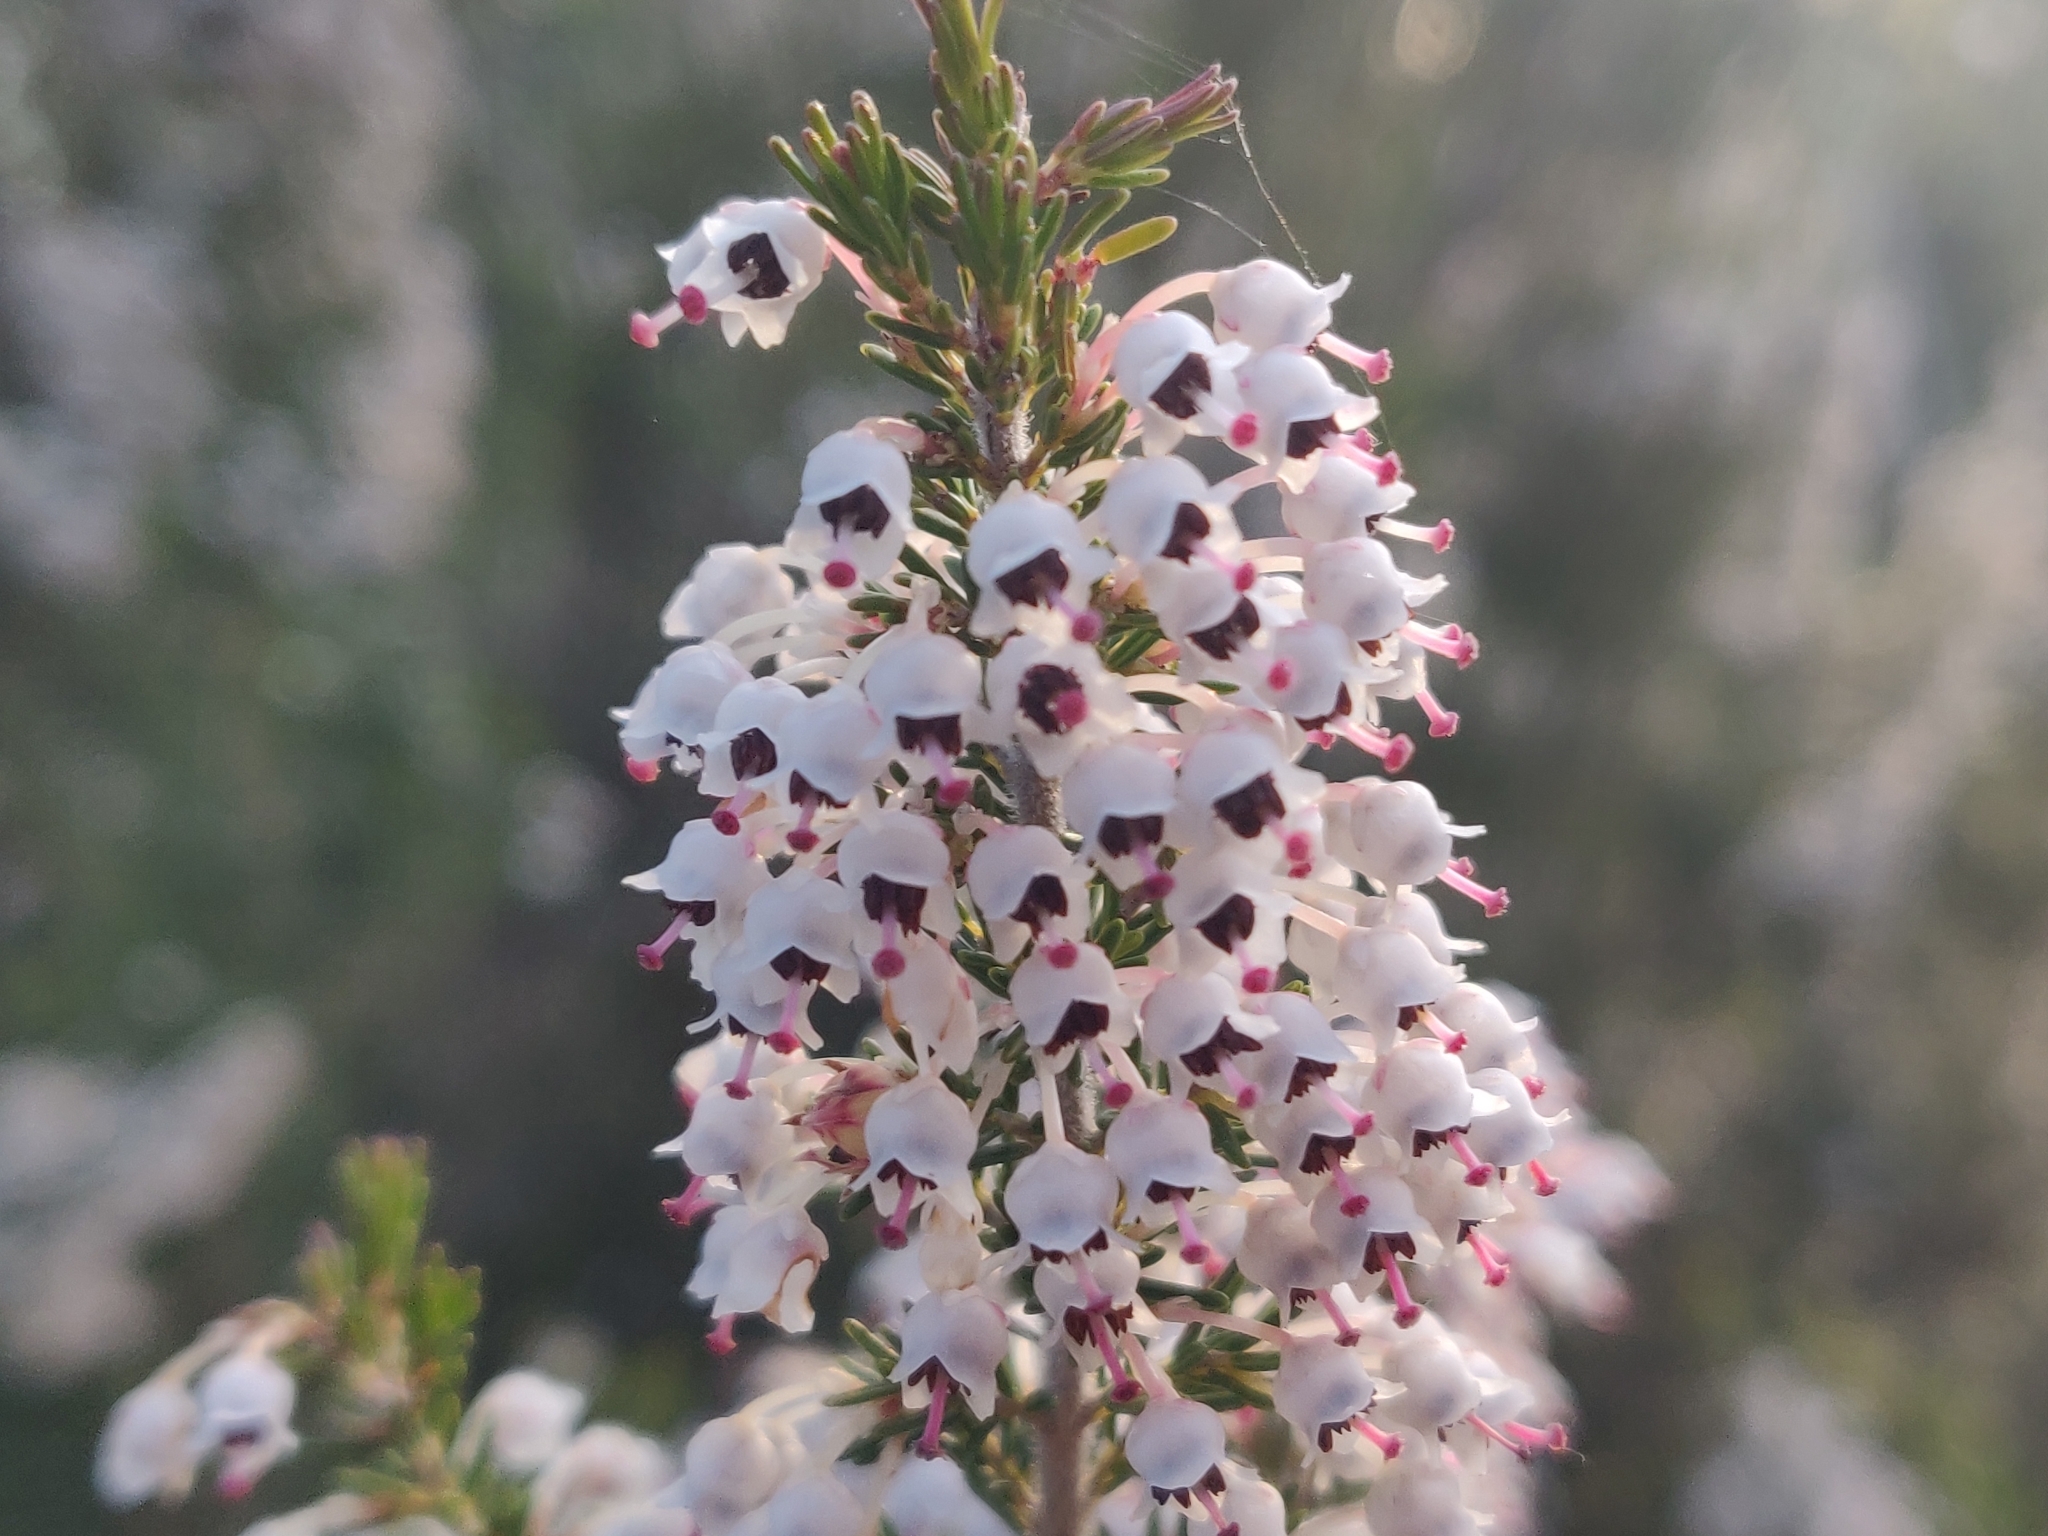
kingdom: Plantae
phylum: Tracheophyta
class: Magnoliopsida
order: Ericales
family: Ericaceae
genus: Erica
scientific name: Erica arborea
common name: Tree heath
